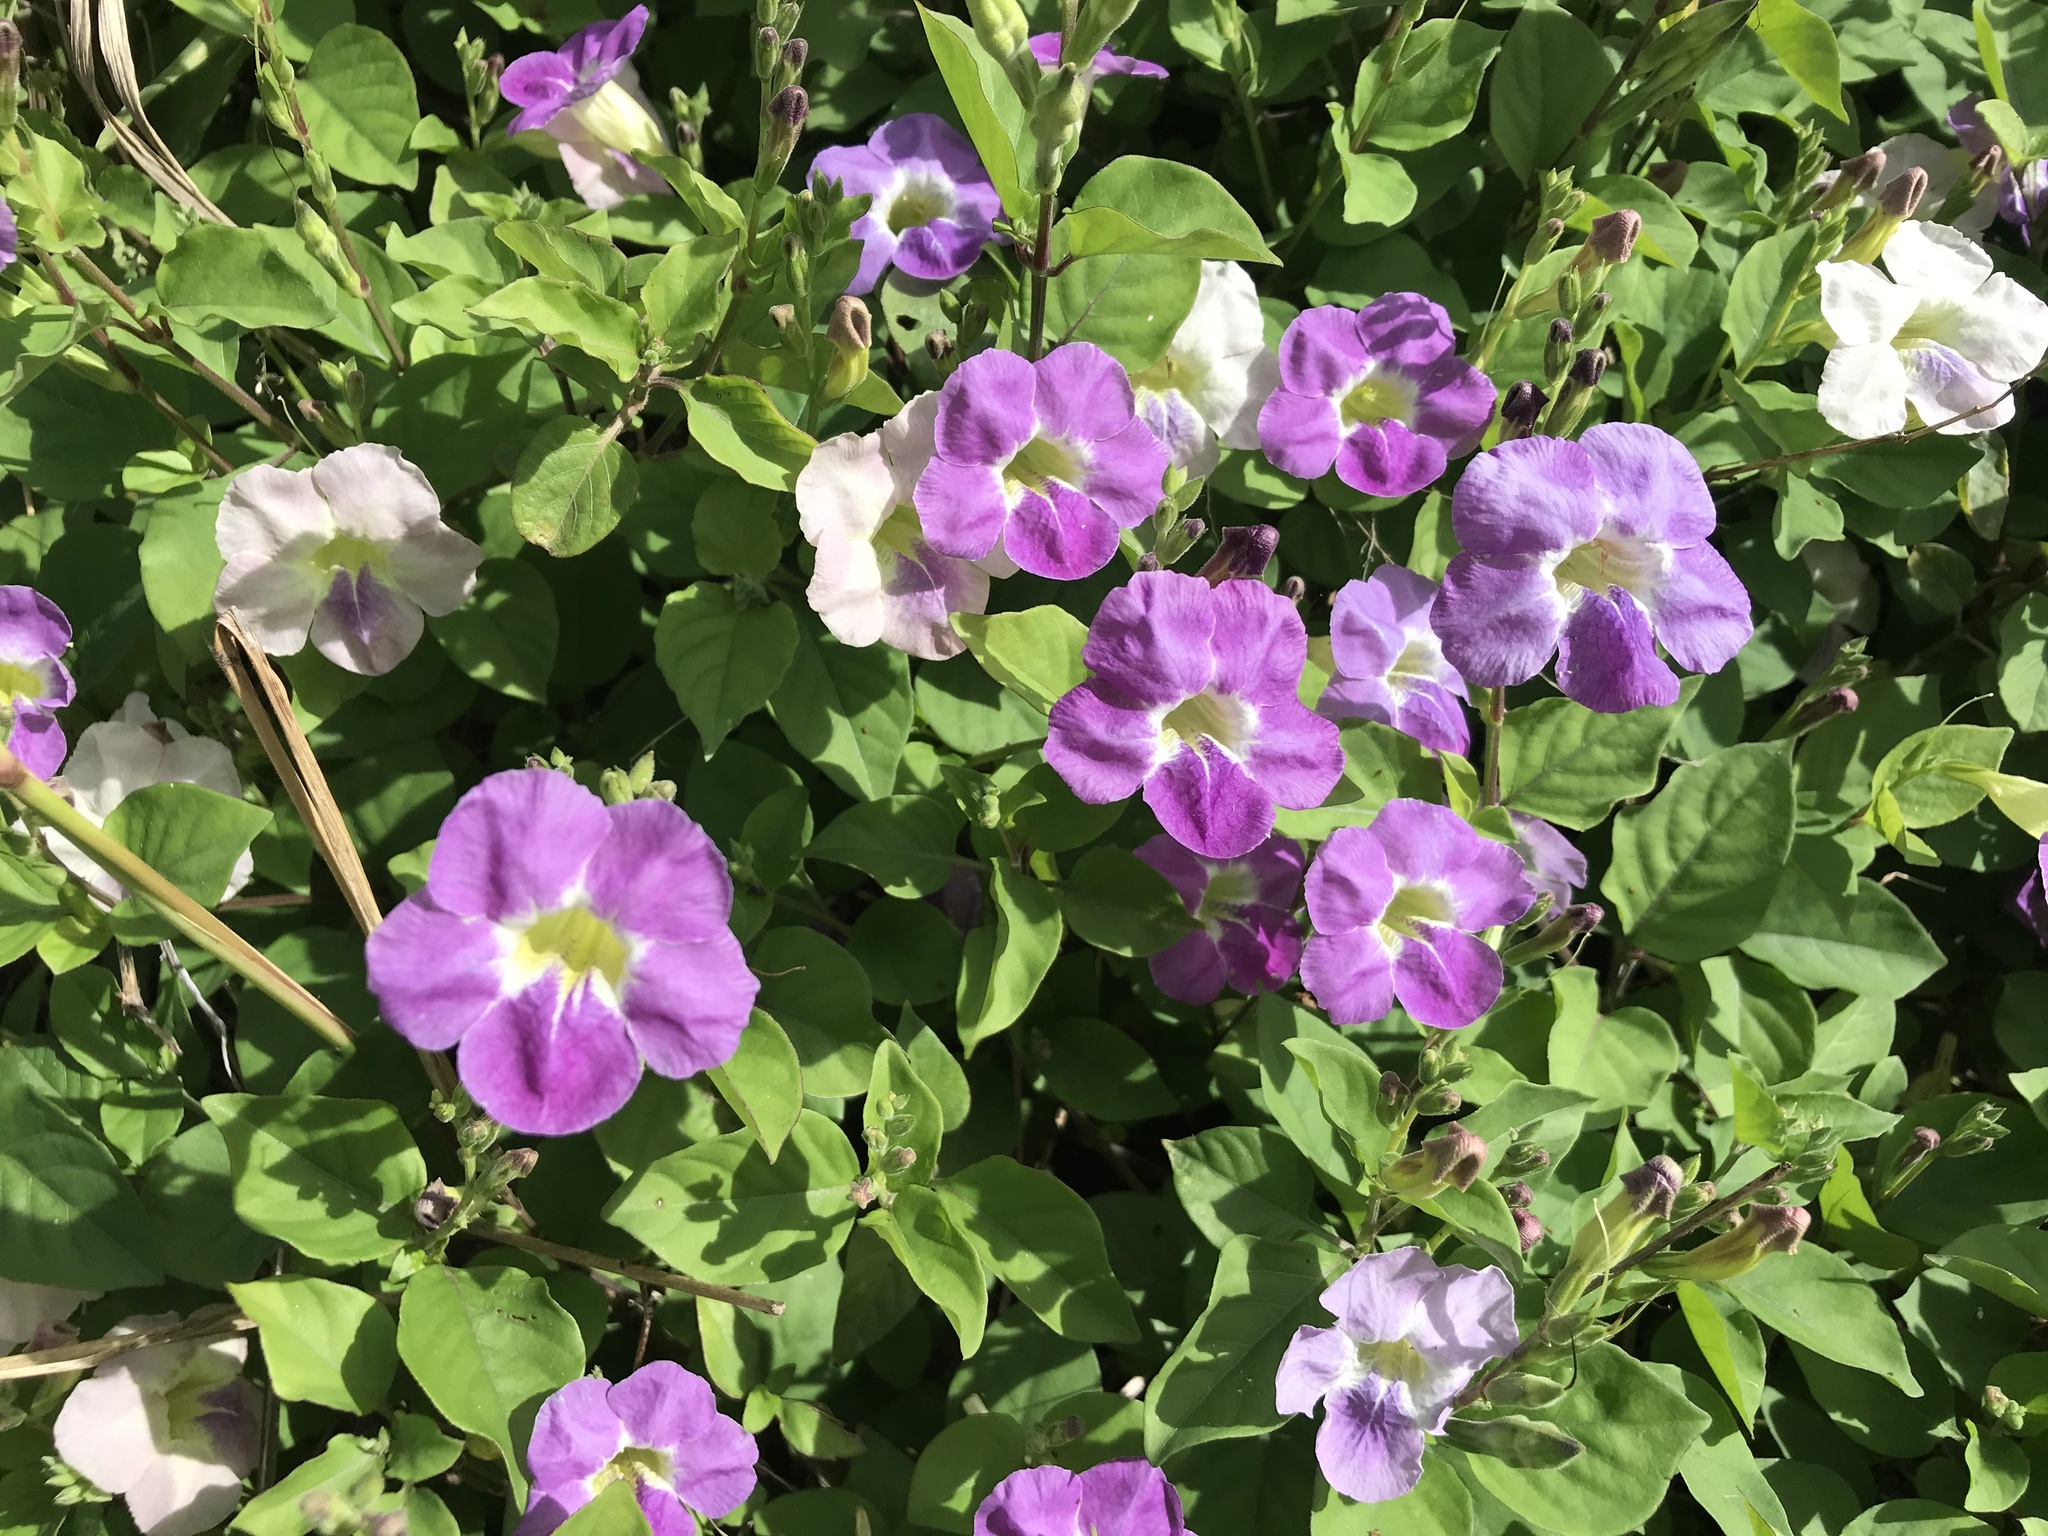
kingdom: Plantae
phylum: Tracheophyta
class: Magnoliopsida
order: Lamiales
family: Acanthaceae
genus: Asystasia
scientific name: Asystasia gangetica
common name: Chinese violet
